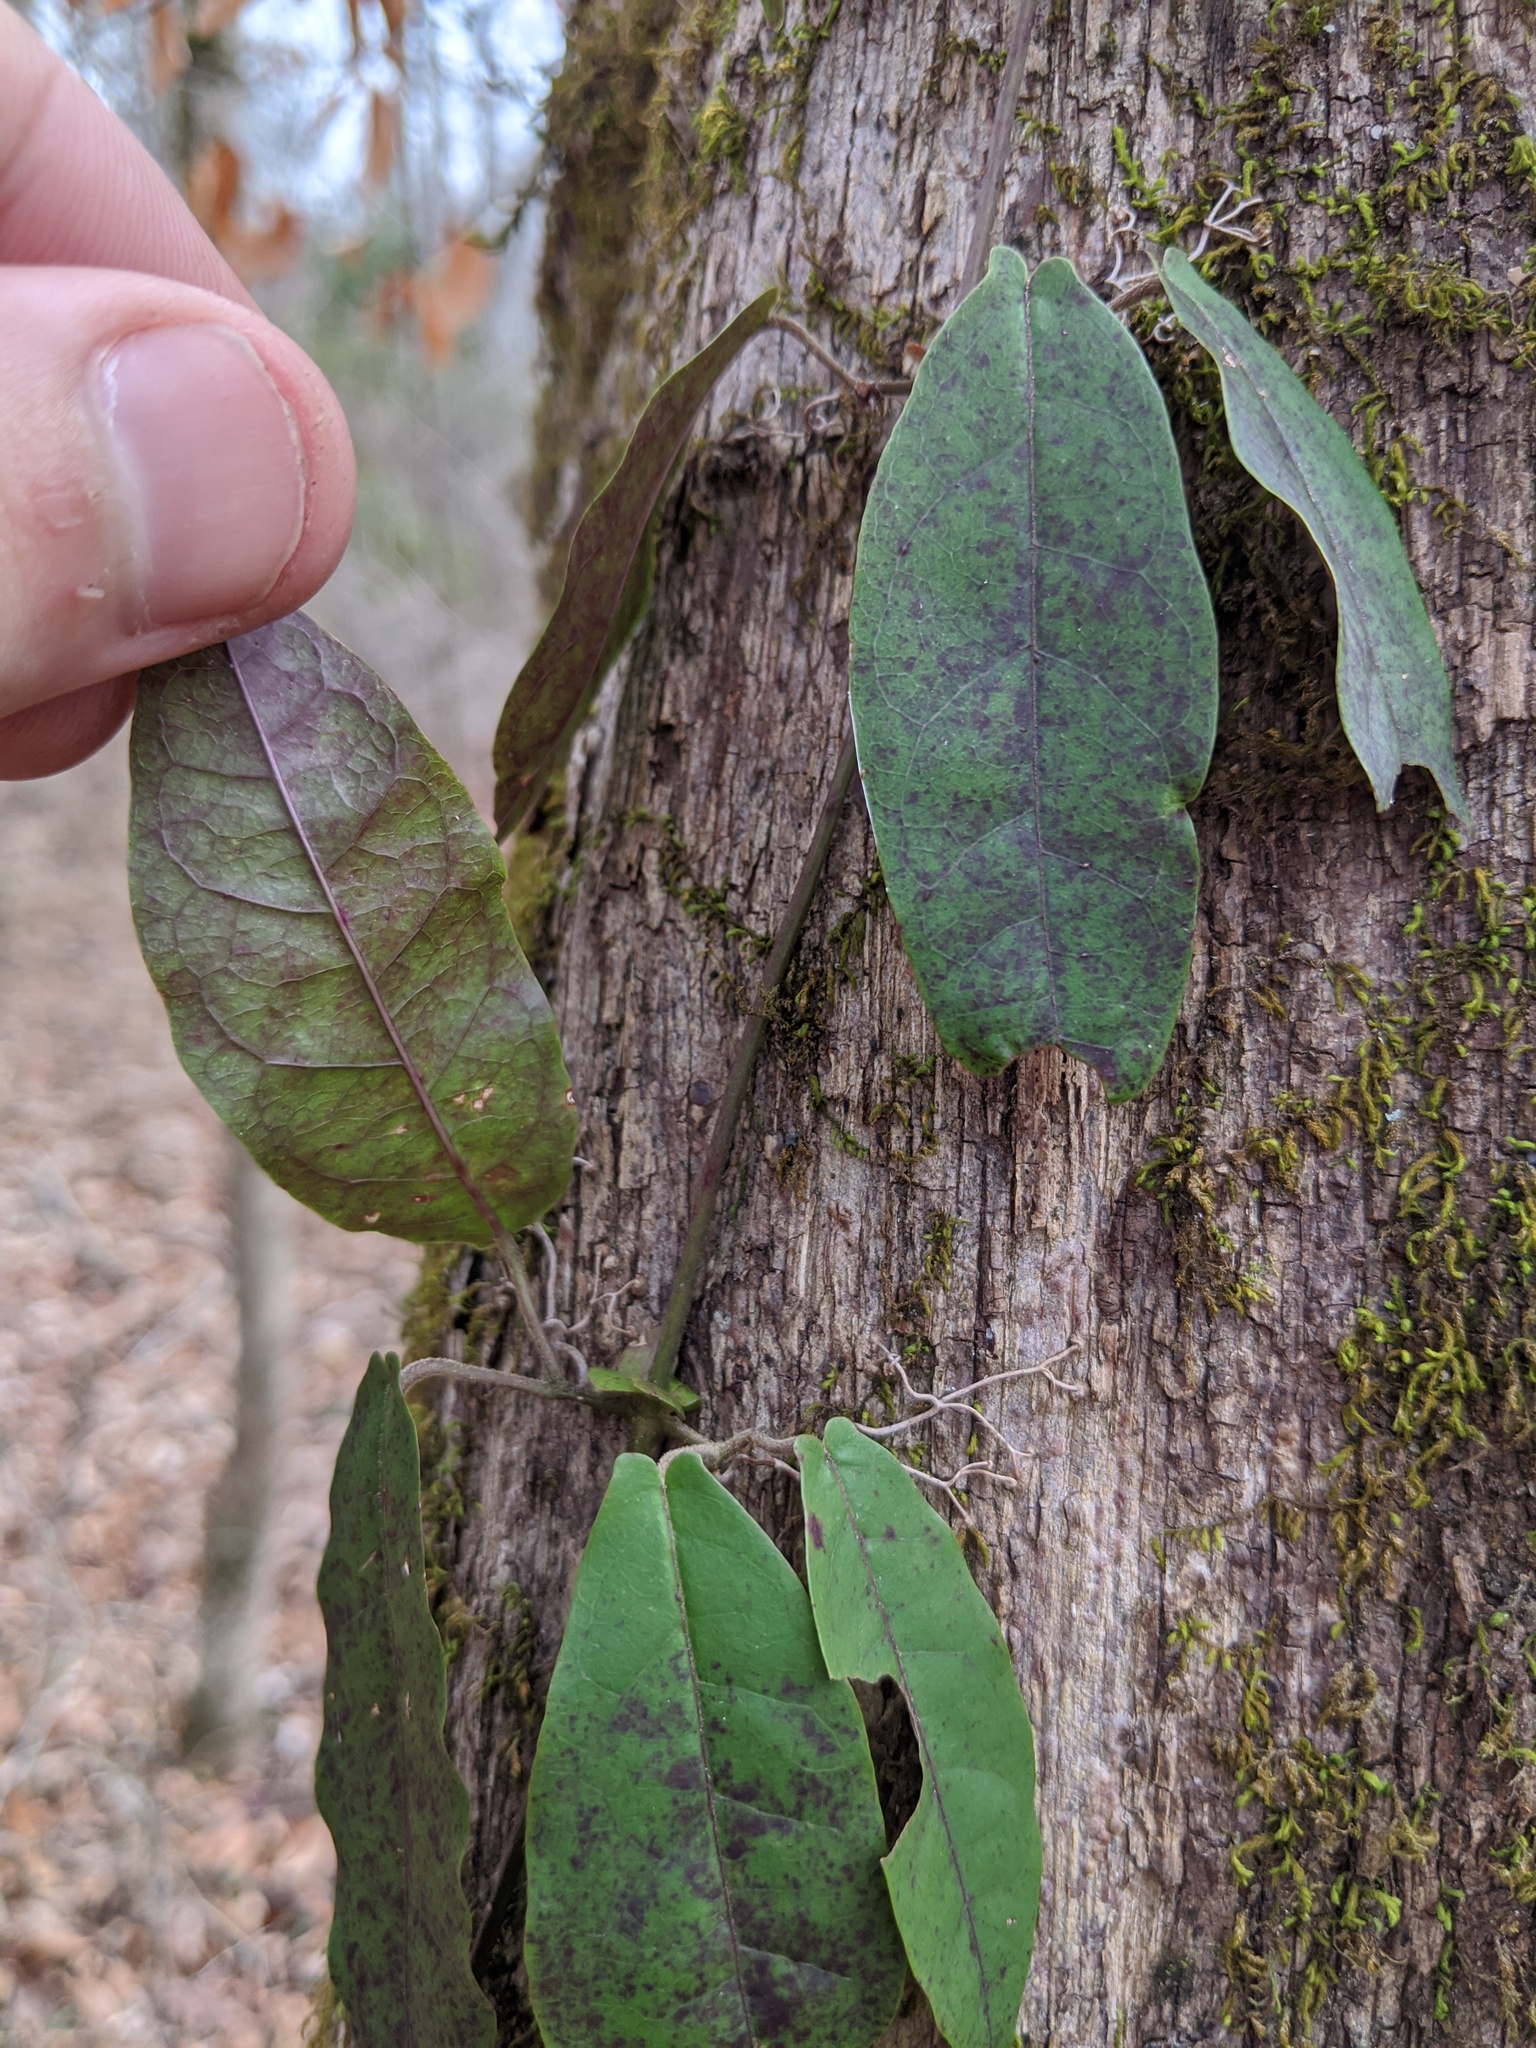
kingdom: Plantae
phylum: Tracheophyta
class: Magnoliopsida
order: Lamiales
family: Bignoniaceae
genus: Bignonia
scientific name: Bignonia capreolata
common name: Crossvine
